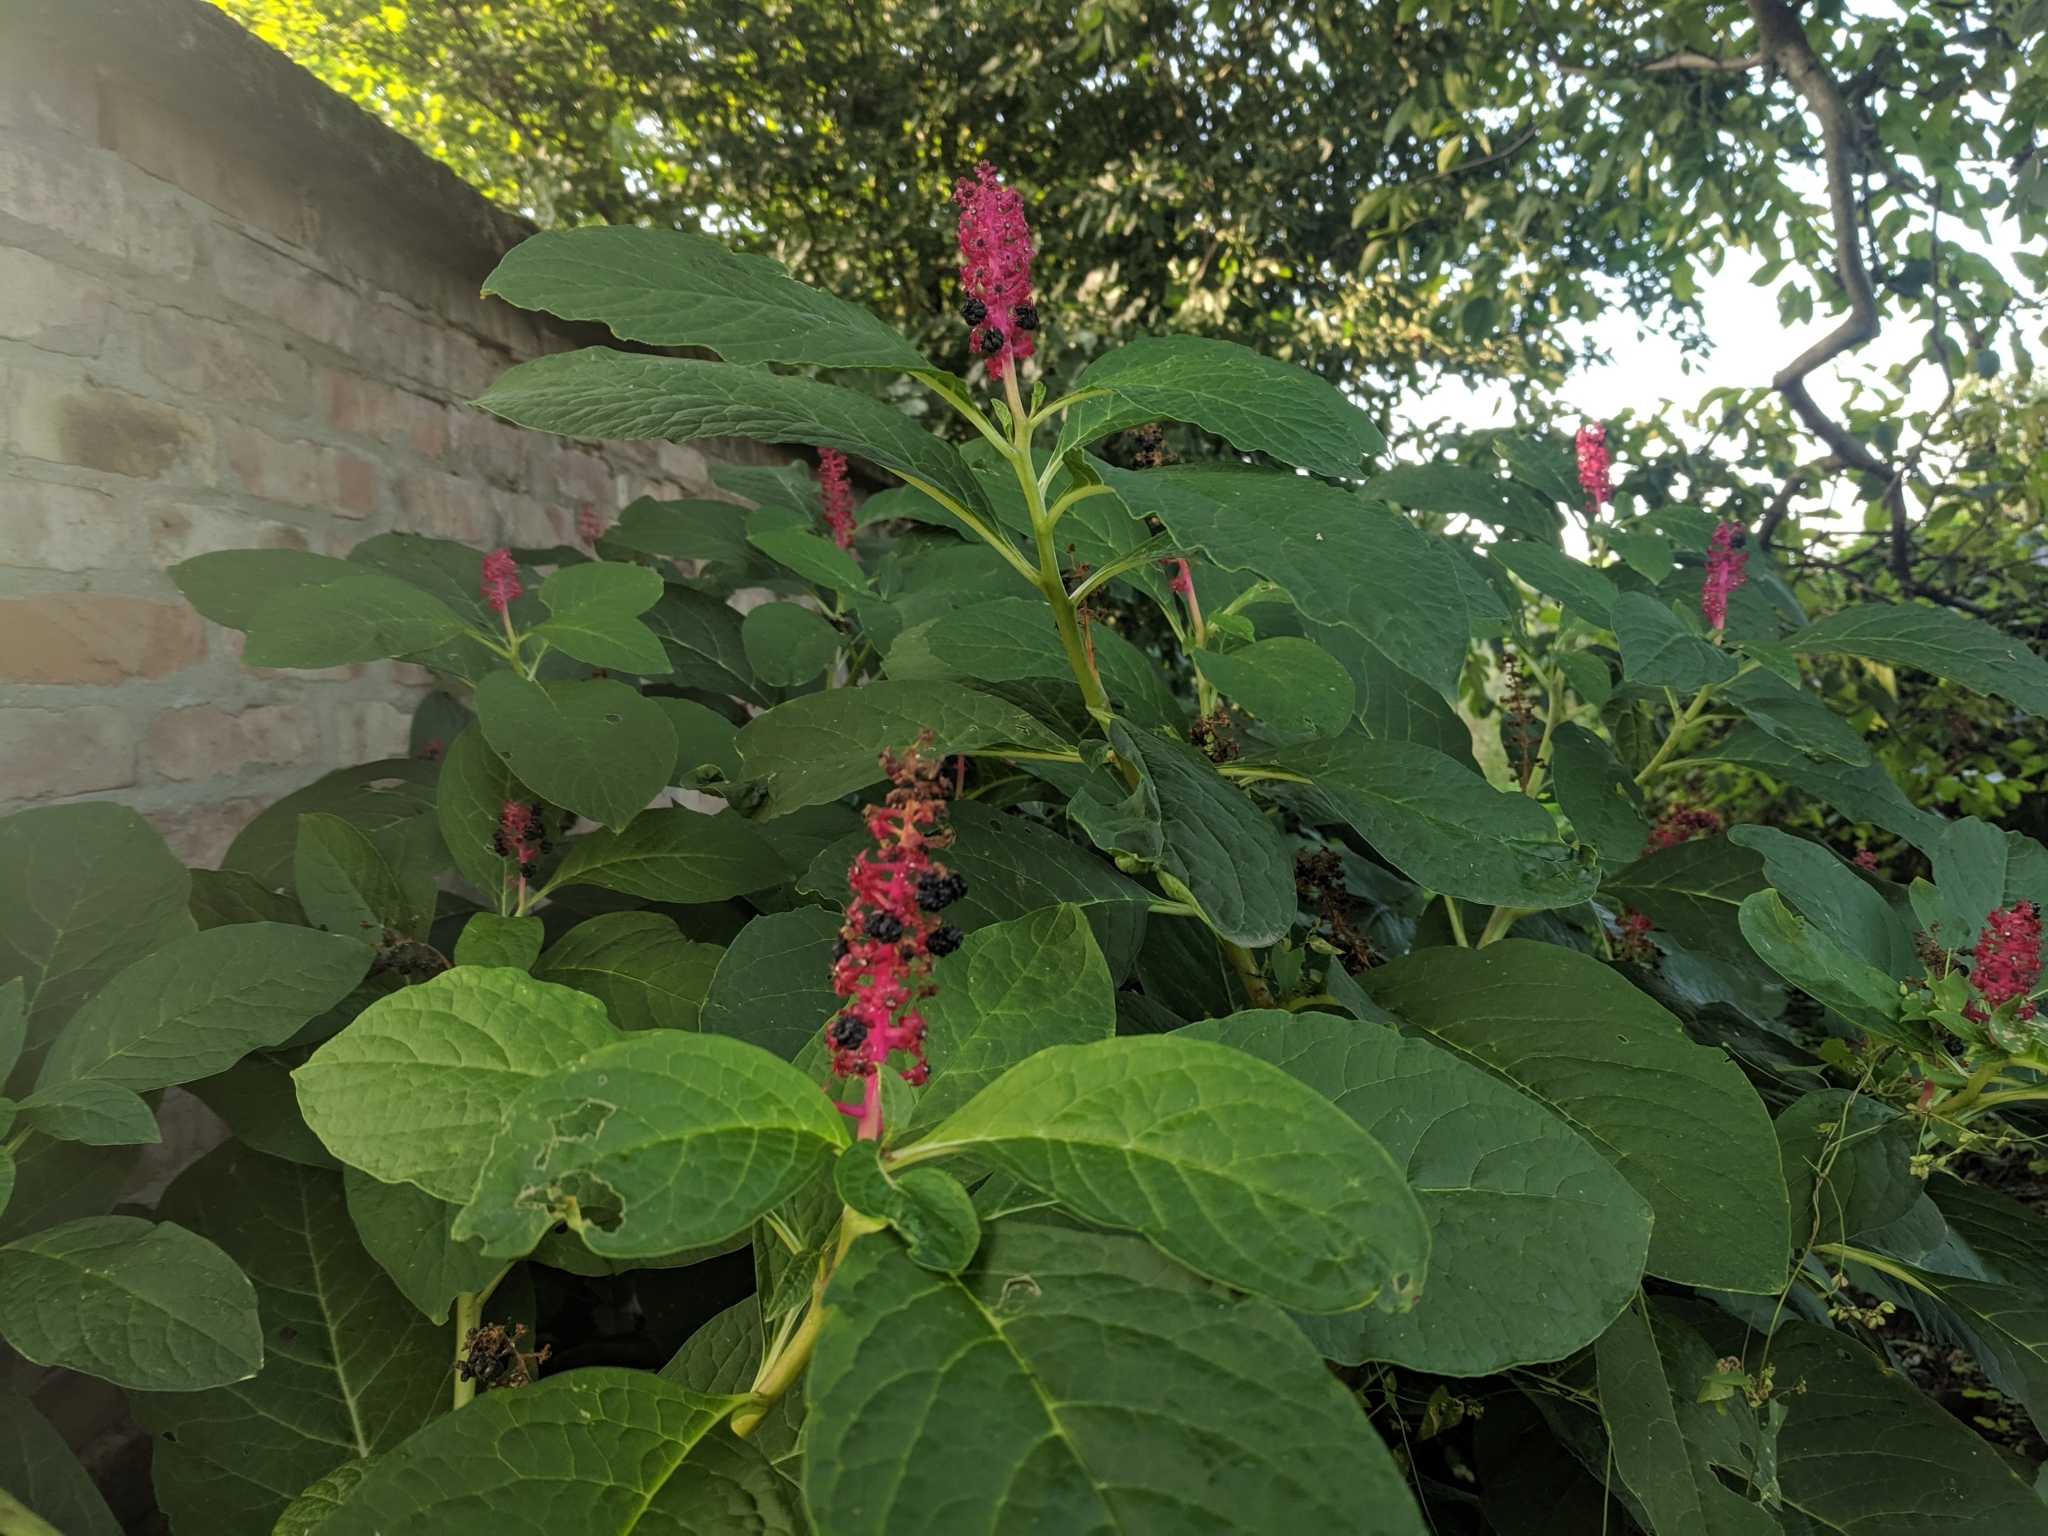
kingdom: Plantae
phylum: Tracheophyta
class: Magnoliopsida
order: Caryophyllales
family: Phytolaccaceae
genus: Phytolacca
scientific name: Phytolacca acinosa
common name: Indian pokeweed
